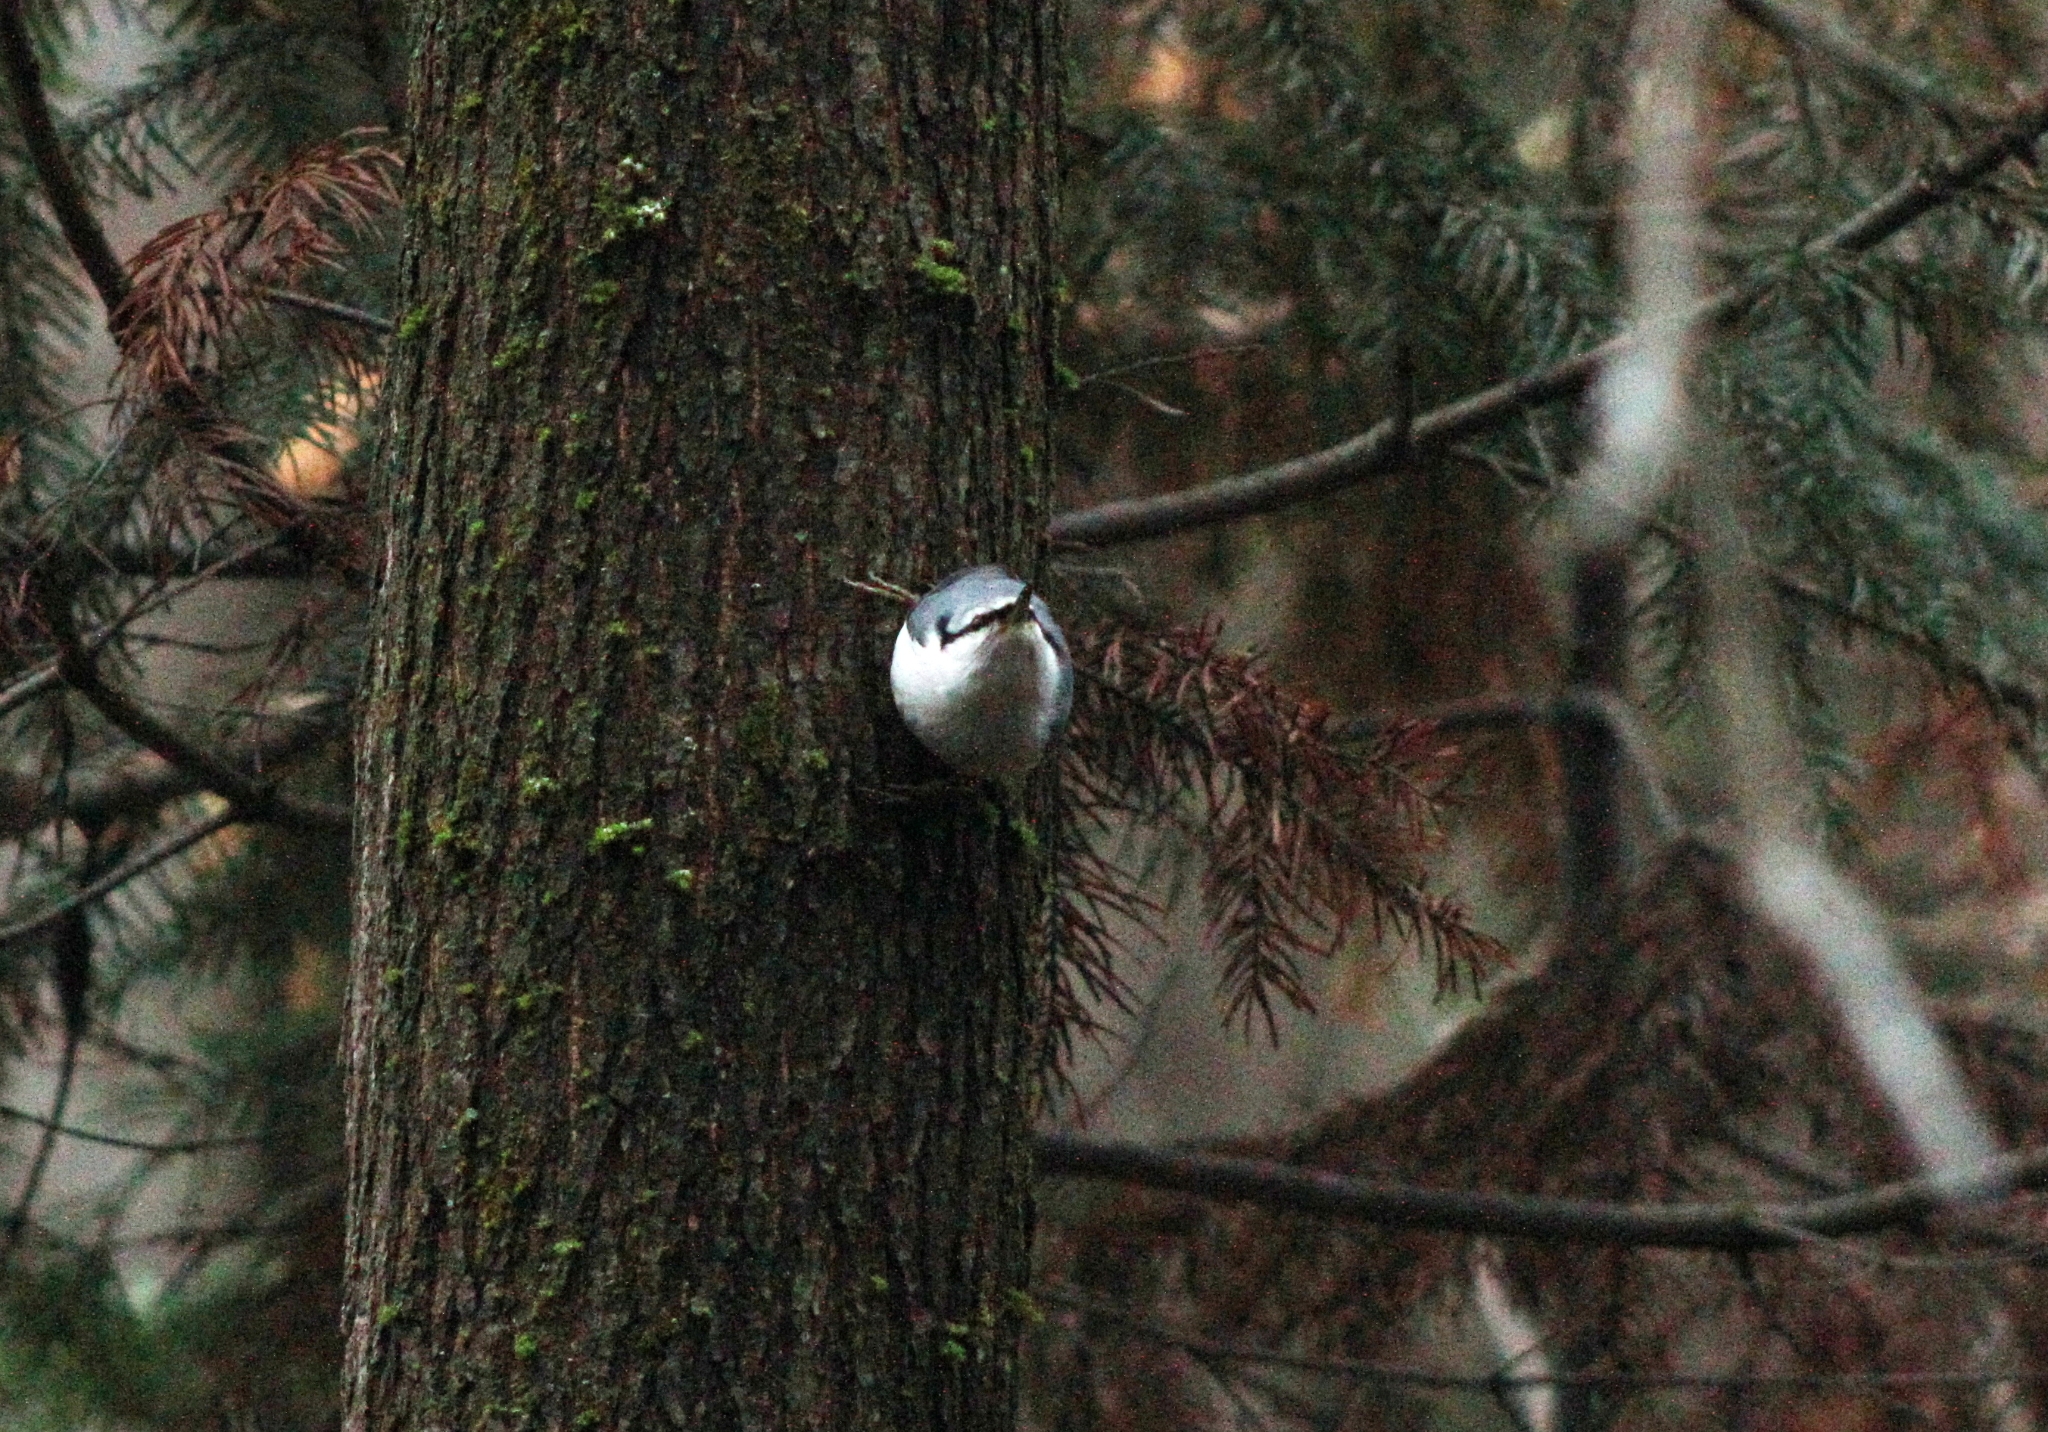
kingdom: Animalia
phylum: Chordata
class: Aves
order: Passeriformes
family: Sittidae
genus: Sitta
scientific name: Sitta europaea
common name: Eurasian nuthatch
